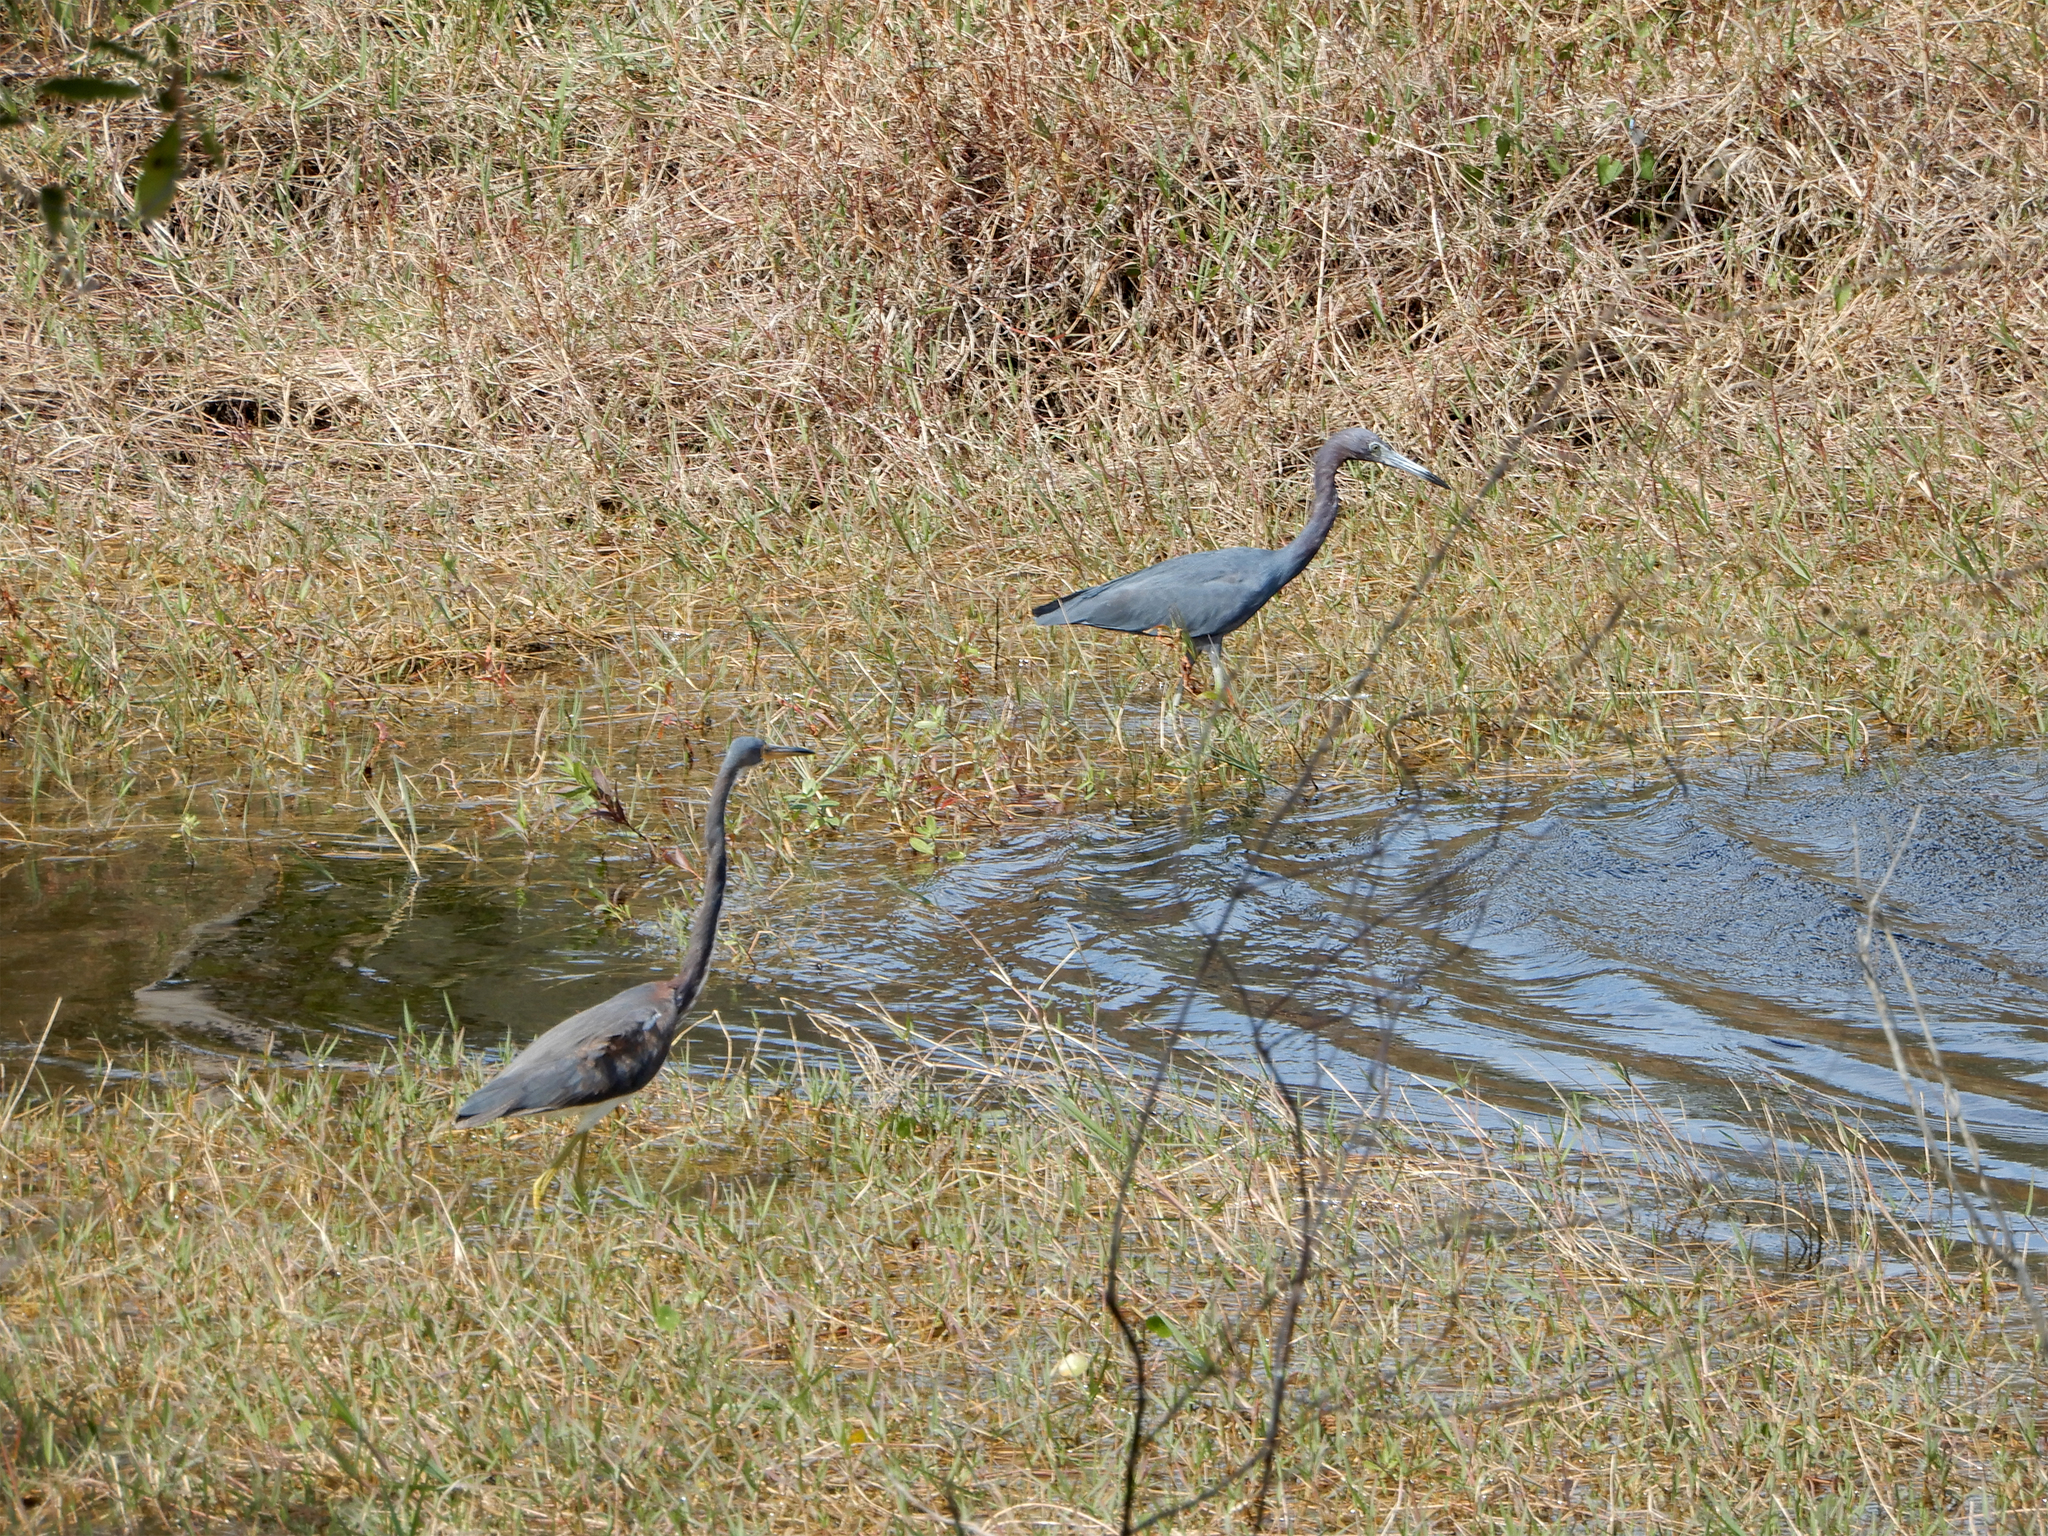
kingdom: Animalia
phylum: Chordata
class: Aves
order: Pelecaniformes
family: Ardeidae
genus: Egretta
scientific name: Egretta tricolor
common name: Tricolored heron
